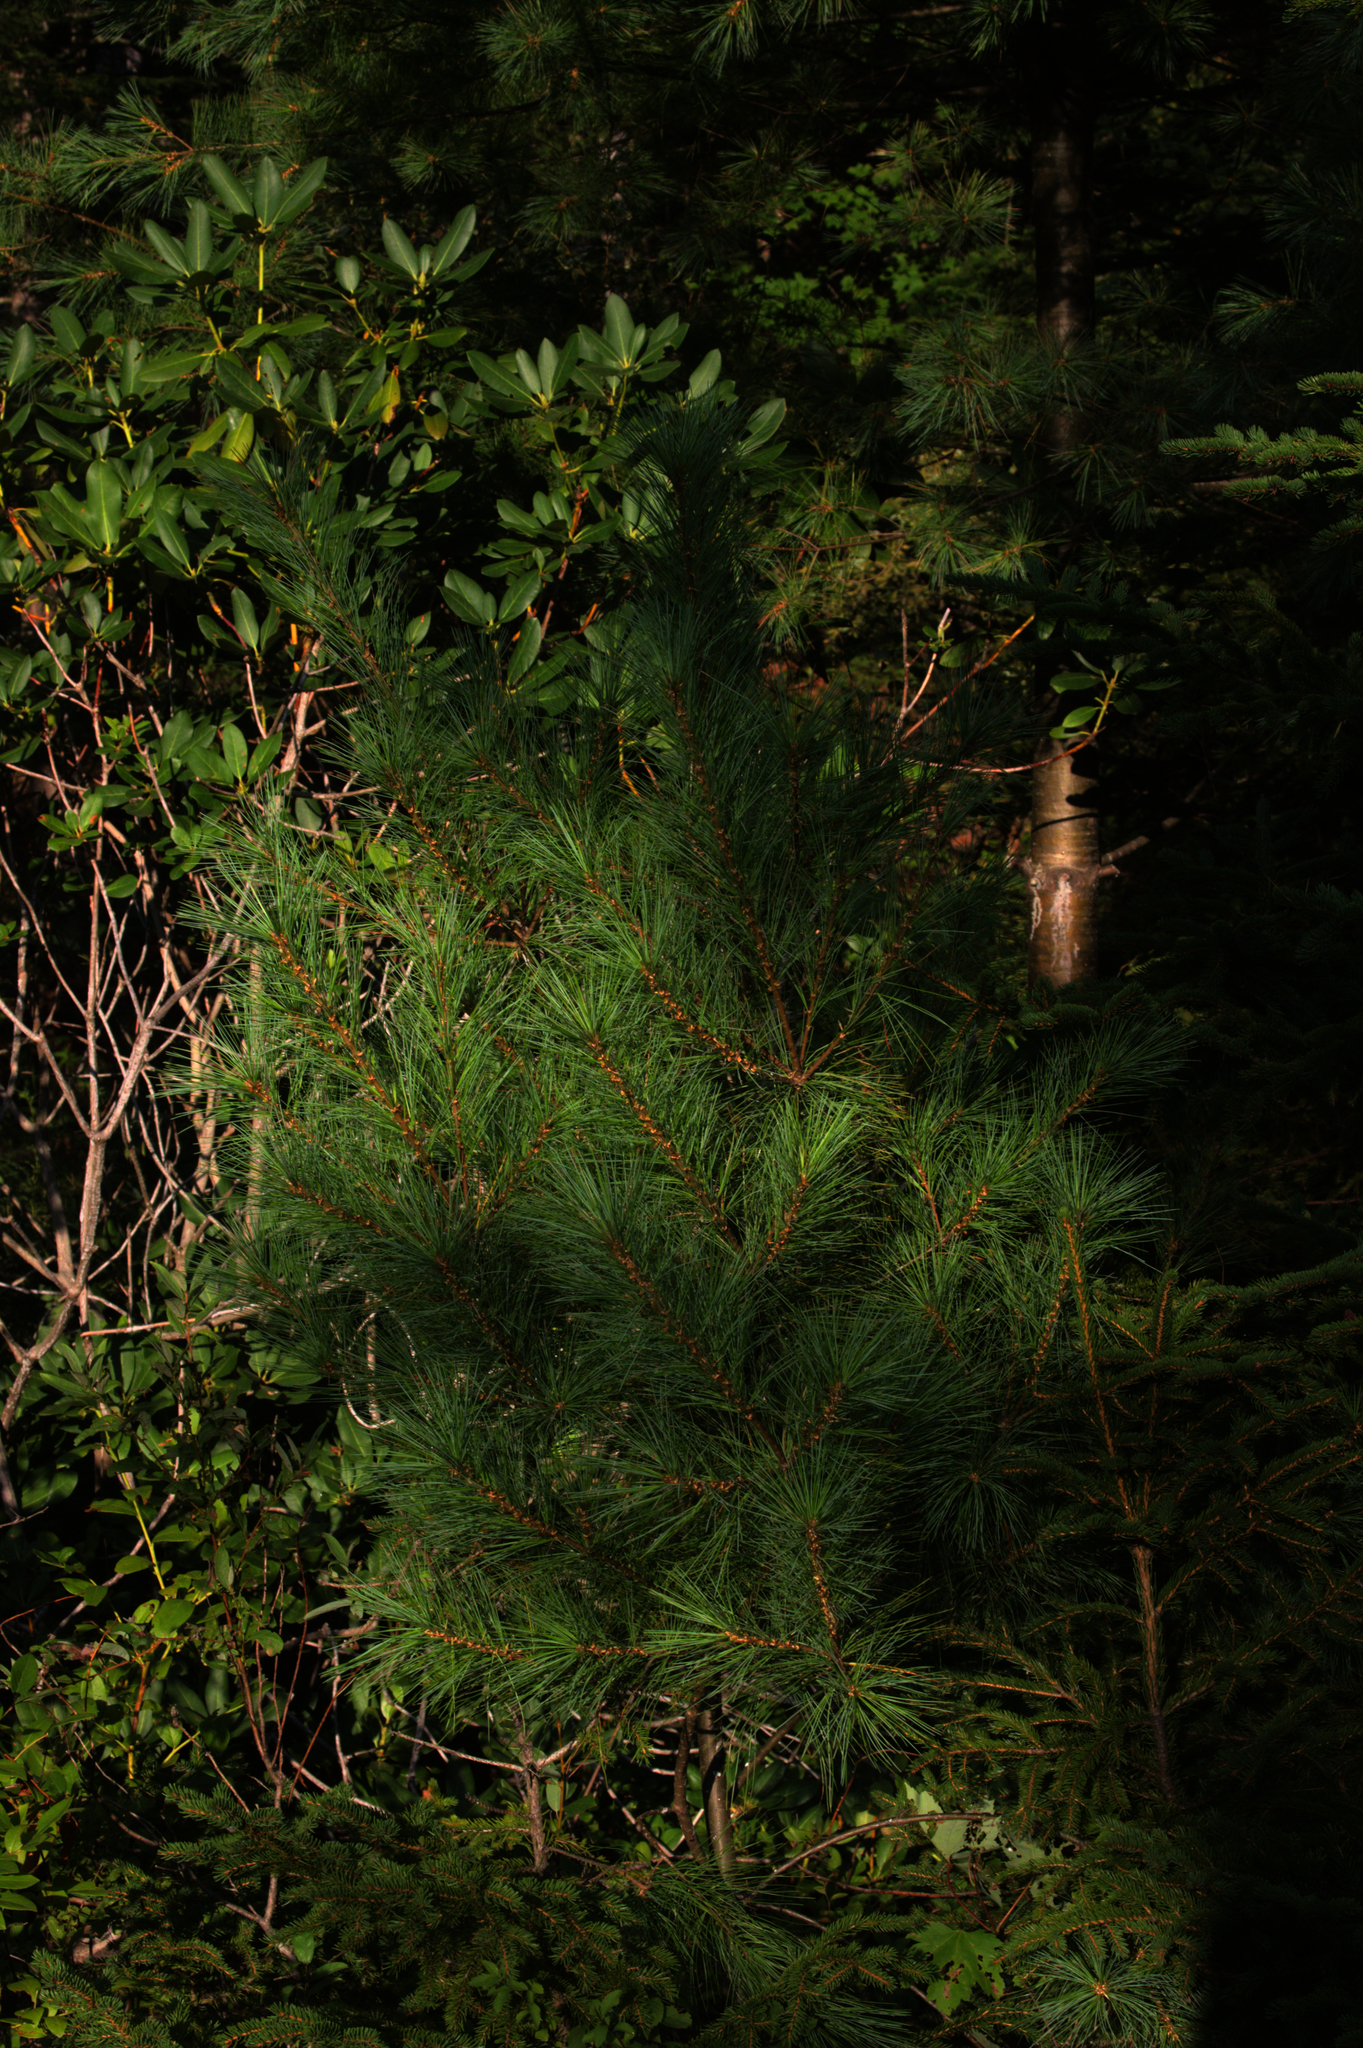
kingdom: Plantae
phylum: Tracheophyta
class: Pinopsida
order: Pinales
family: Pinaceae
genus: Pinus
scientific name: Pinus strobus
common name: Weymouth pine
